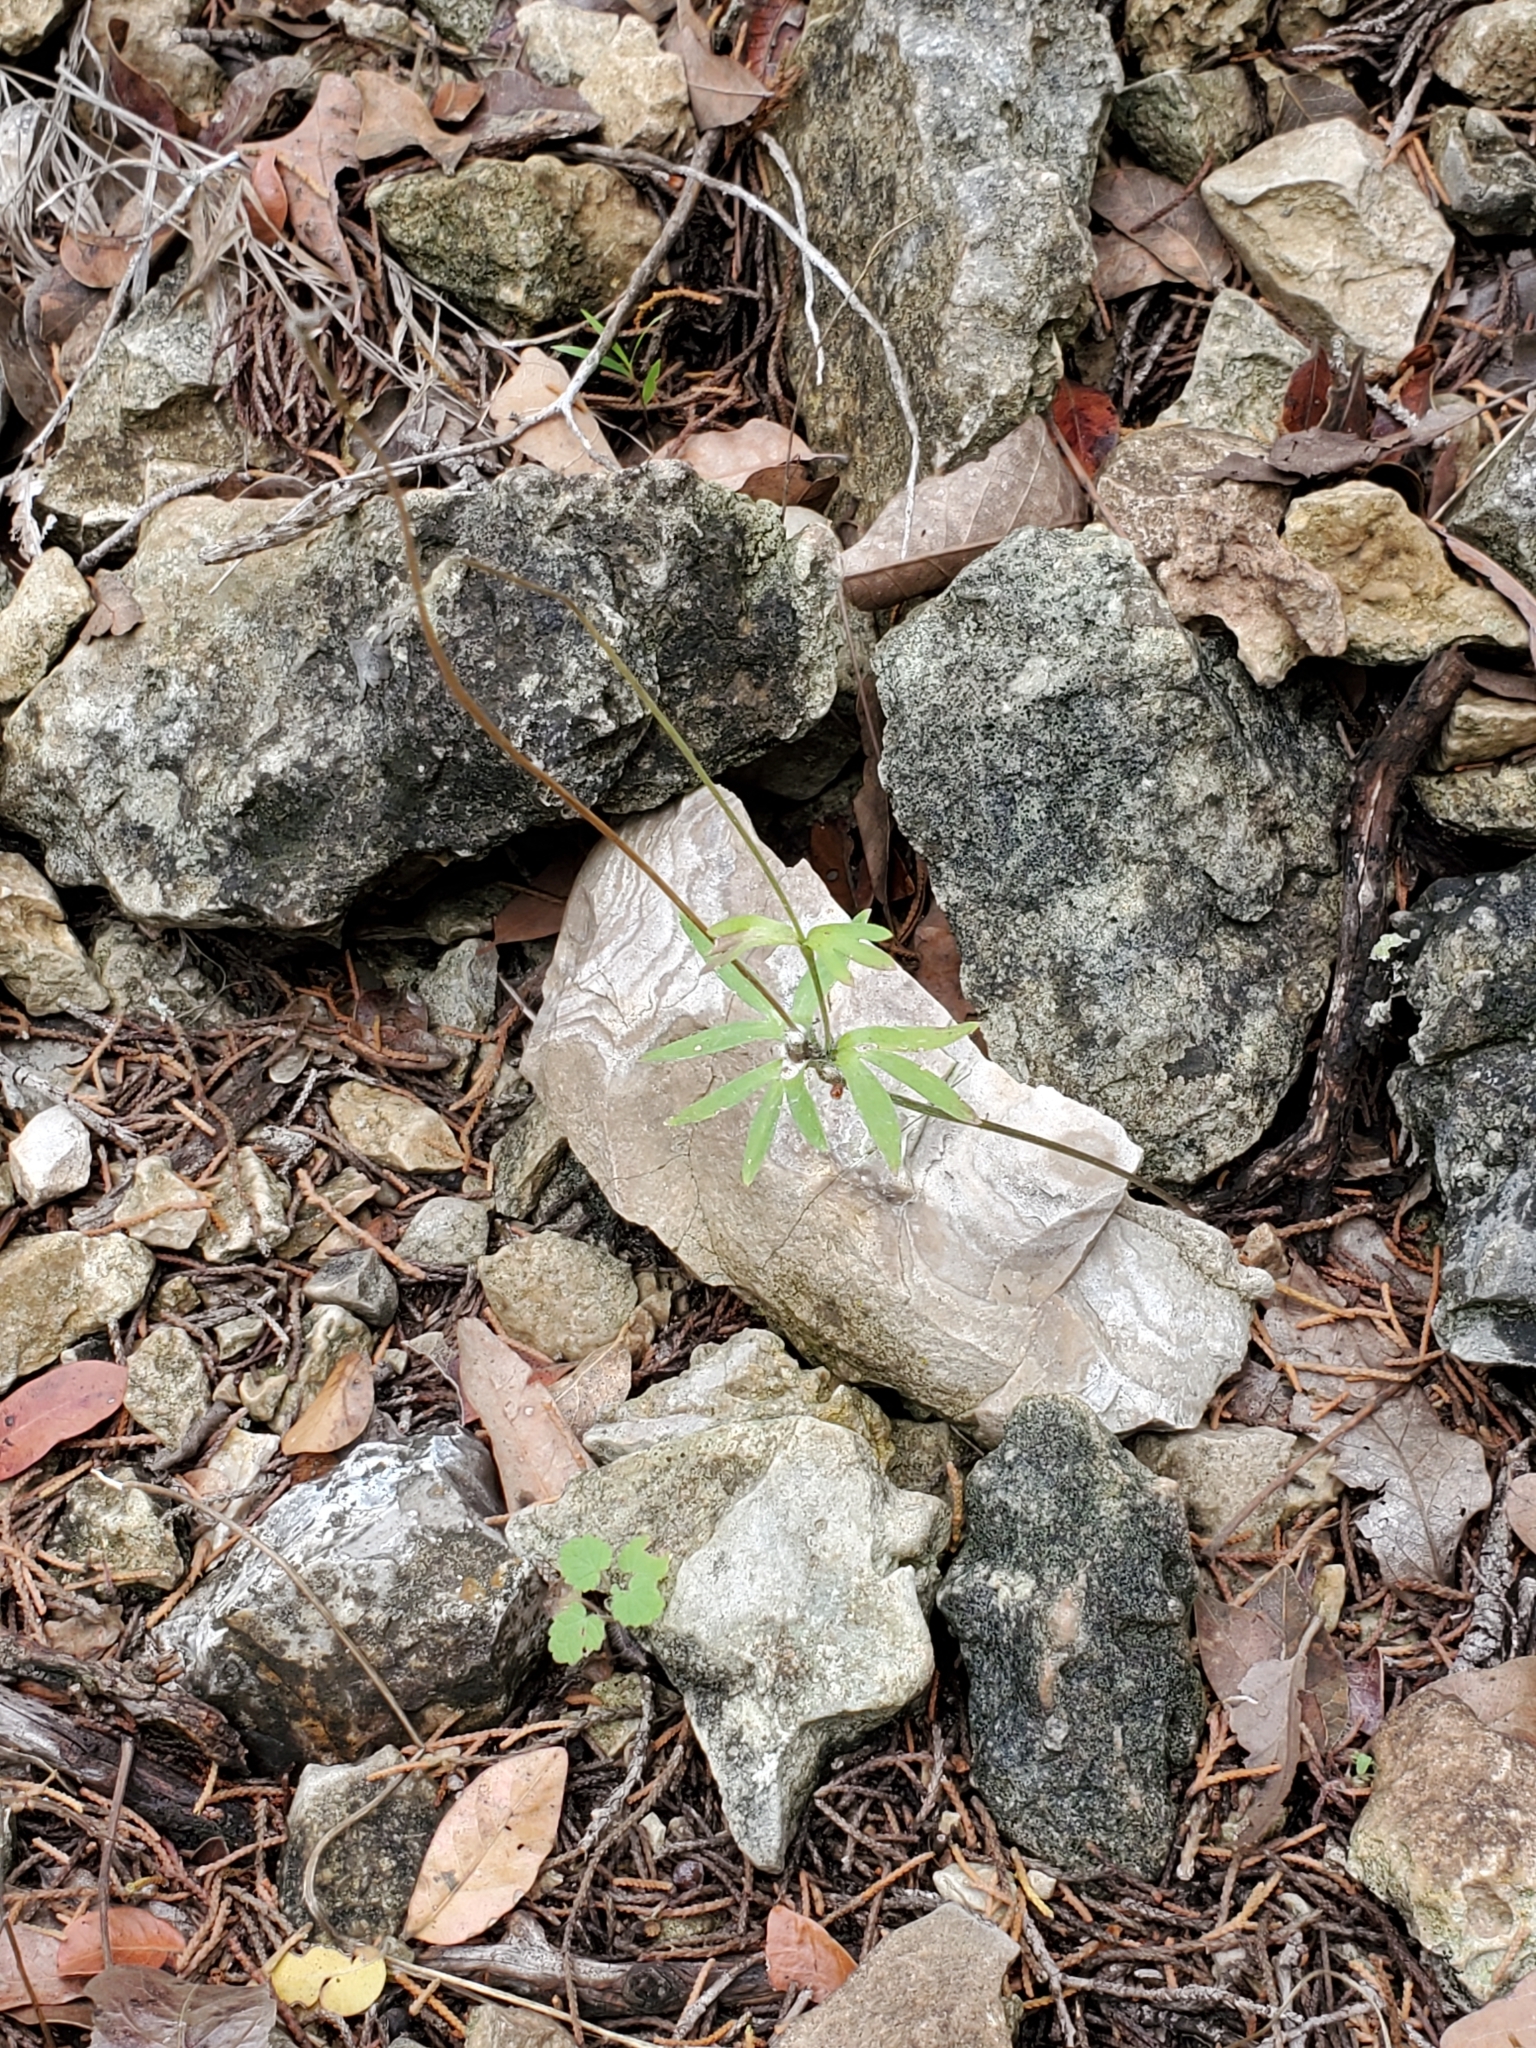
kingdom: Plantae
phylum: Tracheophyta
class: Magnoliopsida
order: Ranunculales
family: Ranunculaceae
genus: Anemone
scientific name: Anemone edwardsiana
